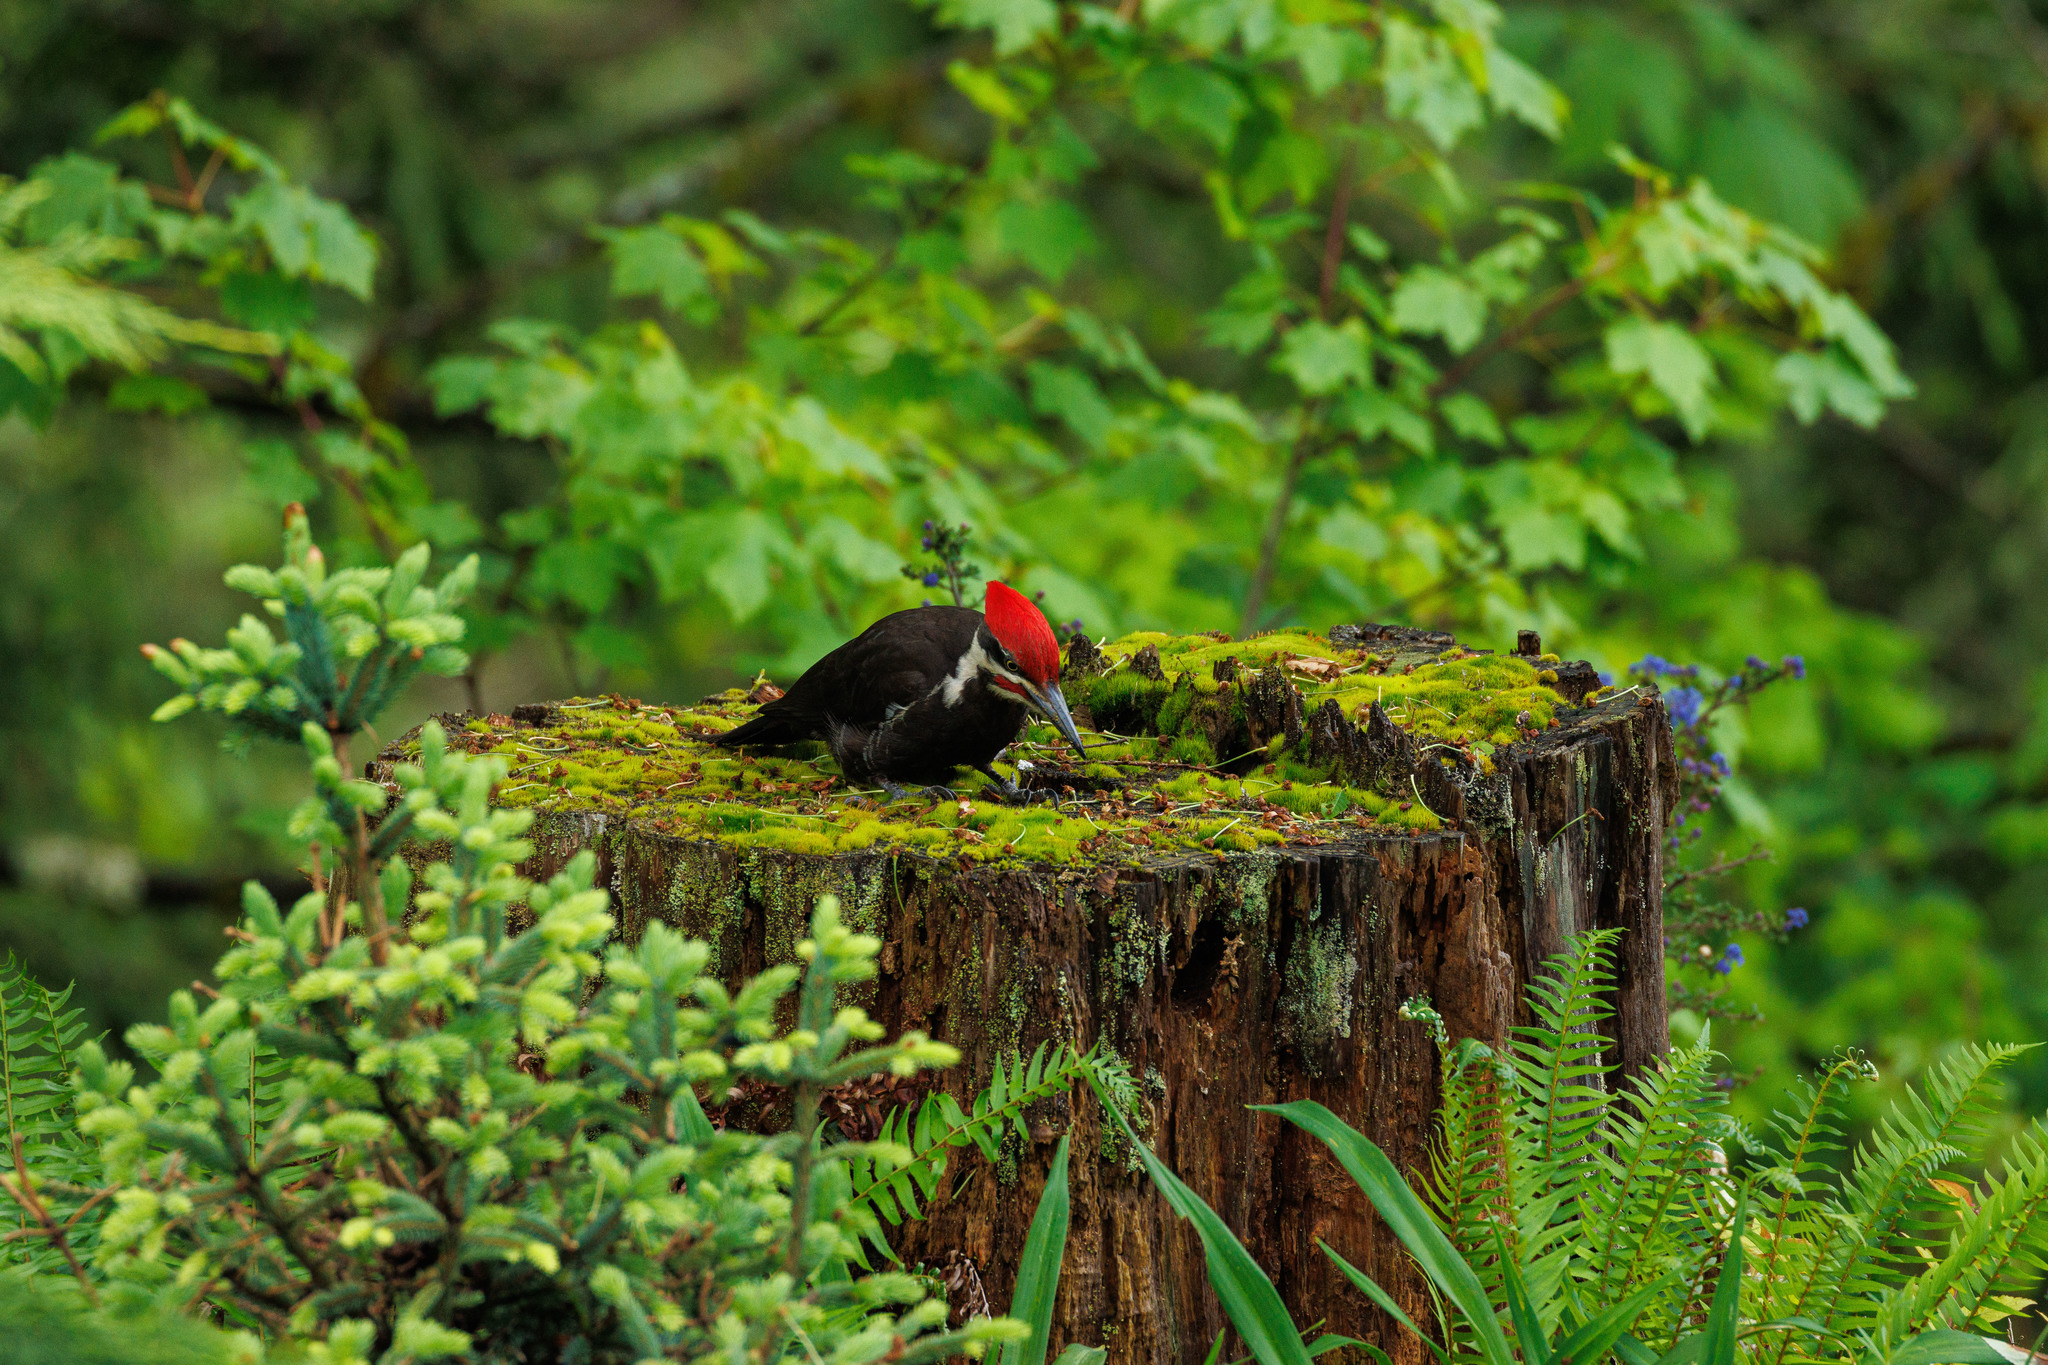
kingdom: Animalia
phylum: Chordata
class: Aves
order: Piciformes
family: Picidae
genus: Dryocopus
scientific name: Dryocopus pileatus
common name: Pileated woodpecker
